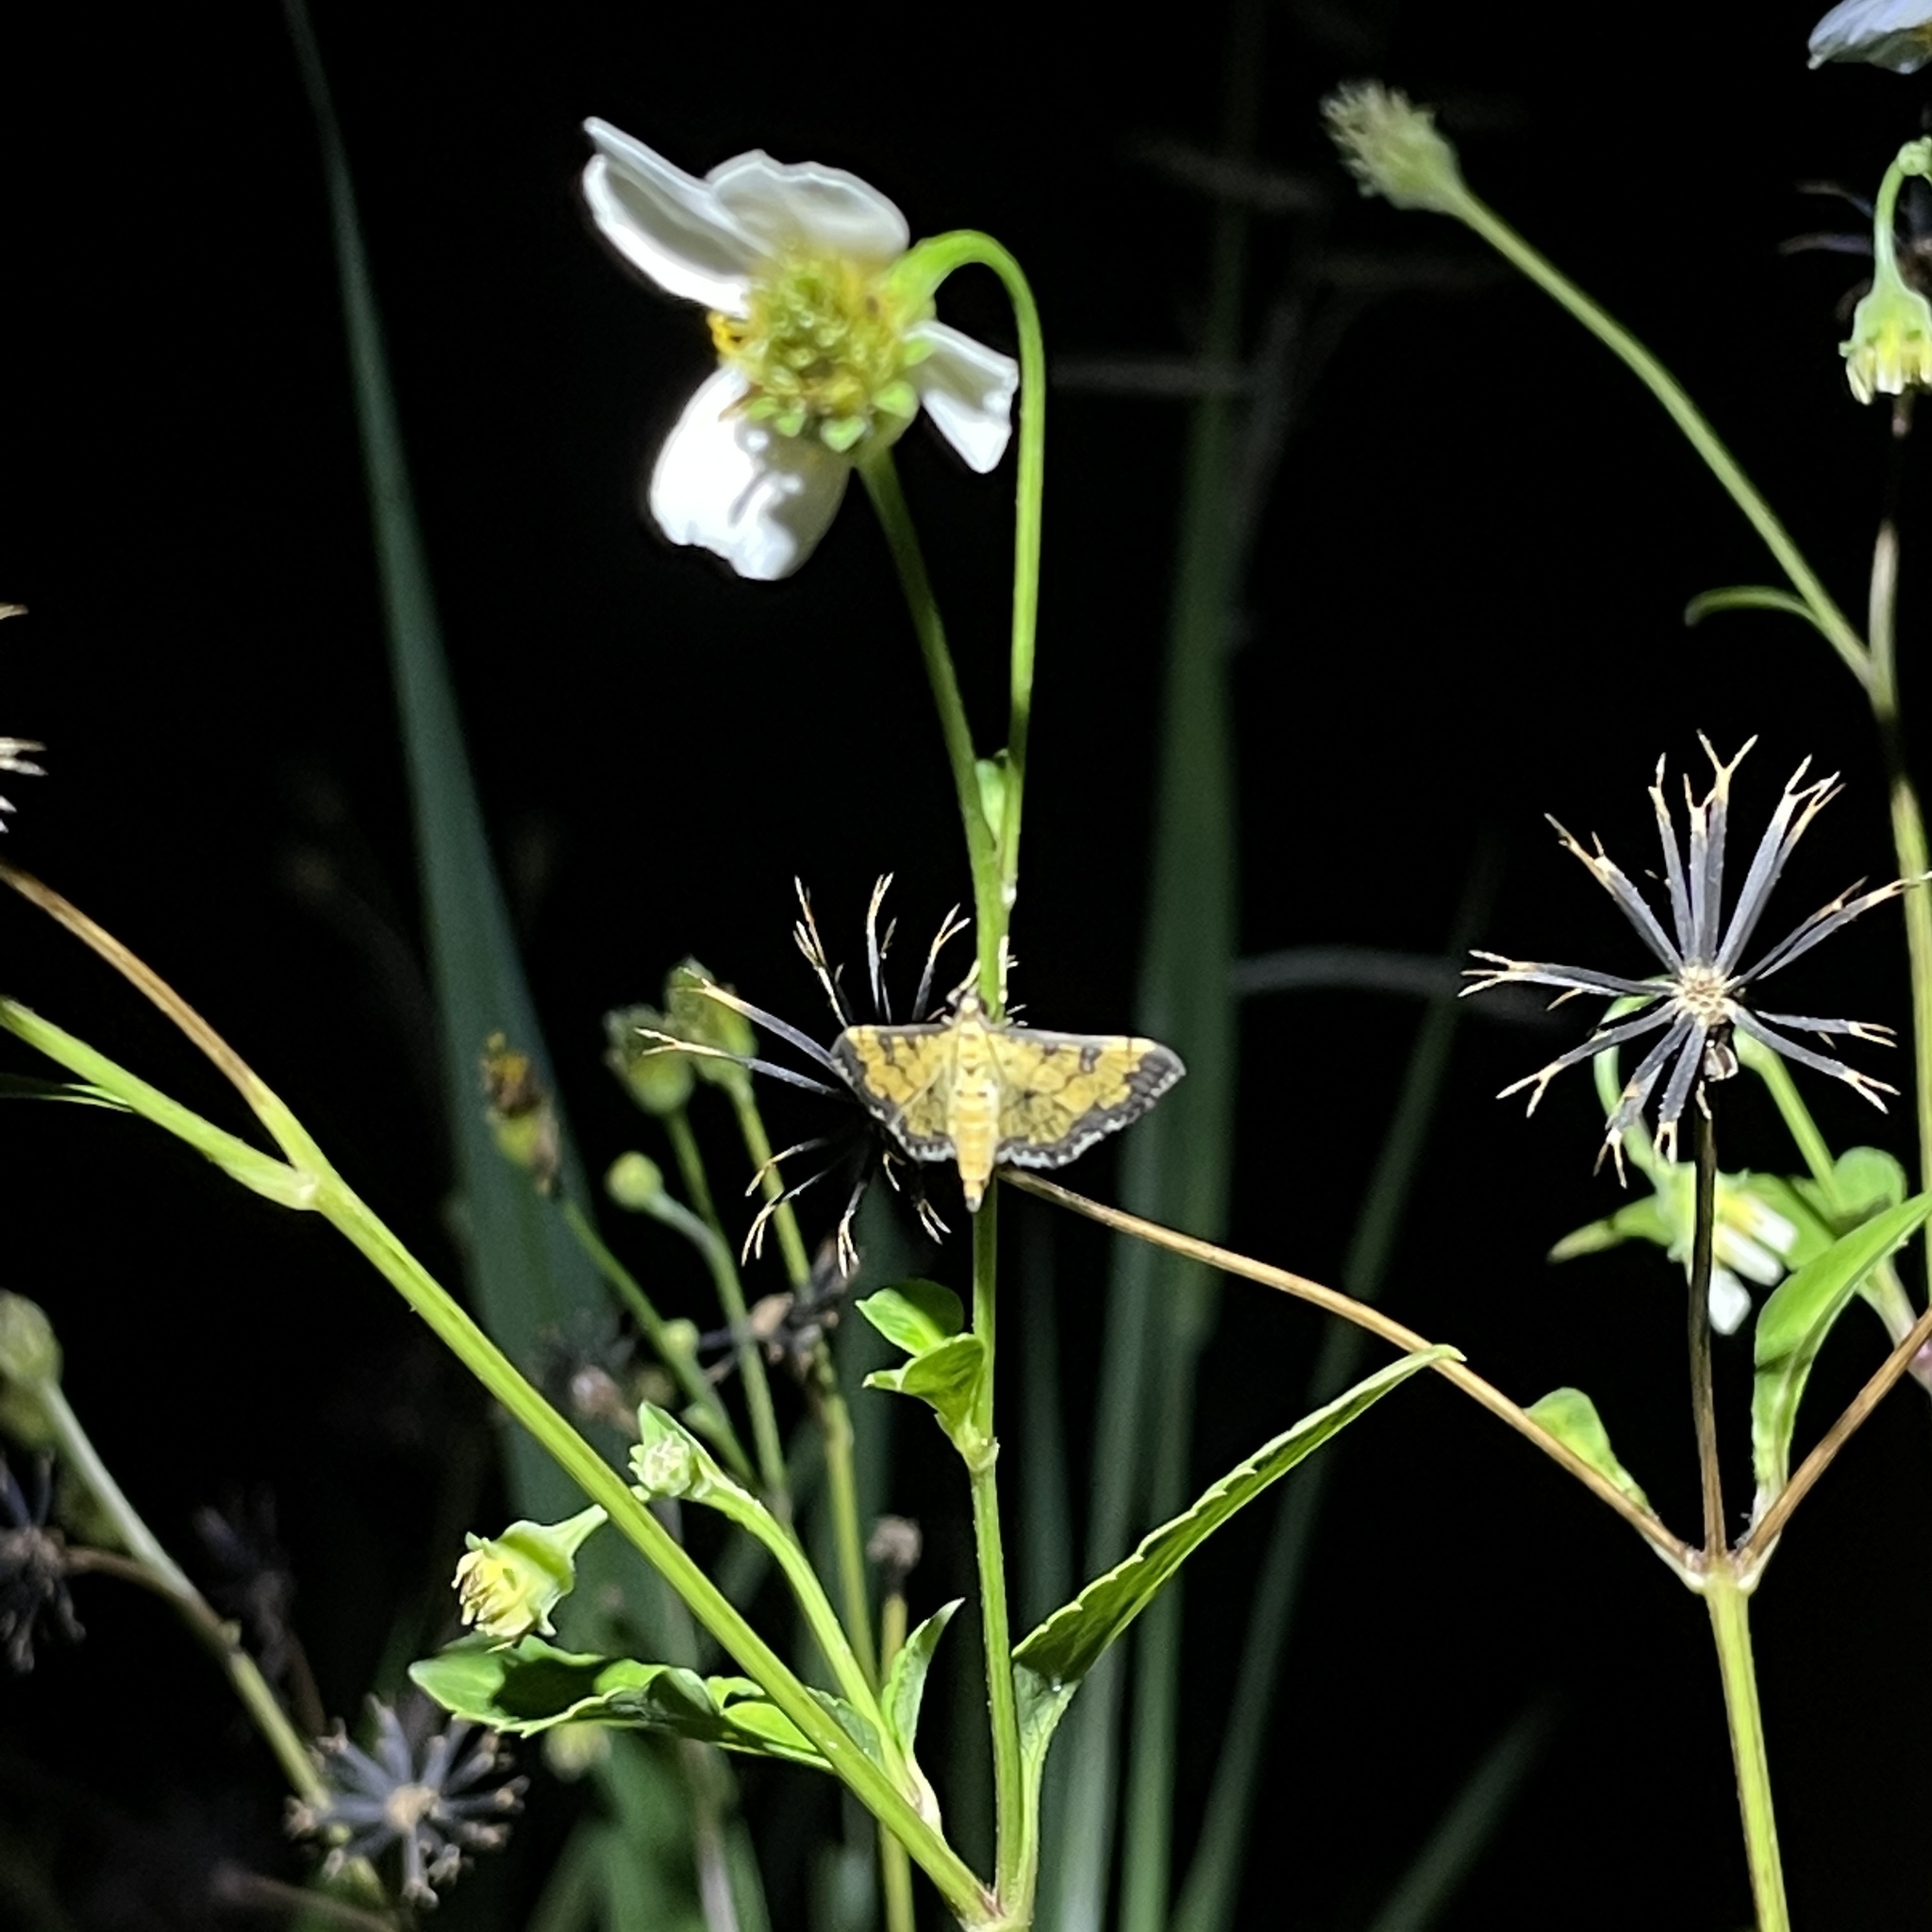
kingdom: Animalia
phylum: Arthropoda
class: Insecta
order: Lepidoptera
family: Crambidae
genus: Diacme
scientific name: Diacme mopsalis
